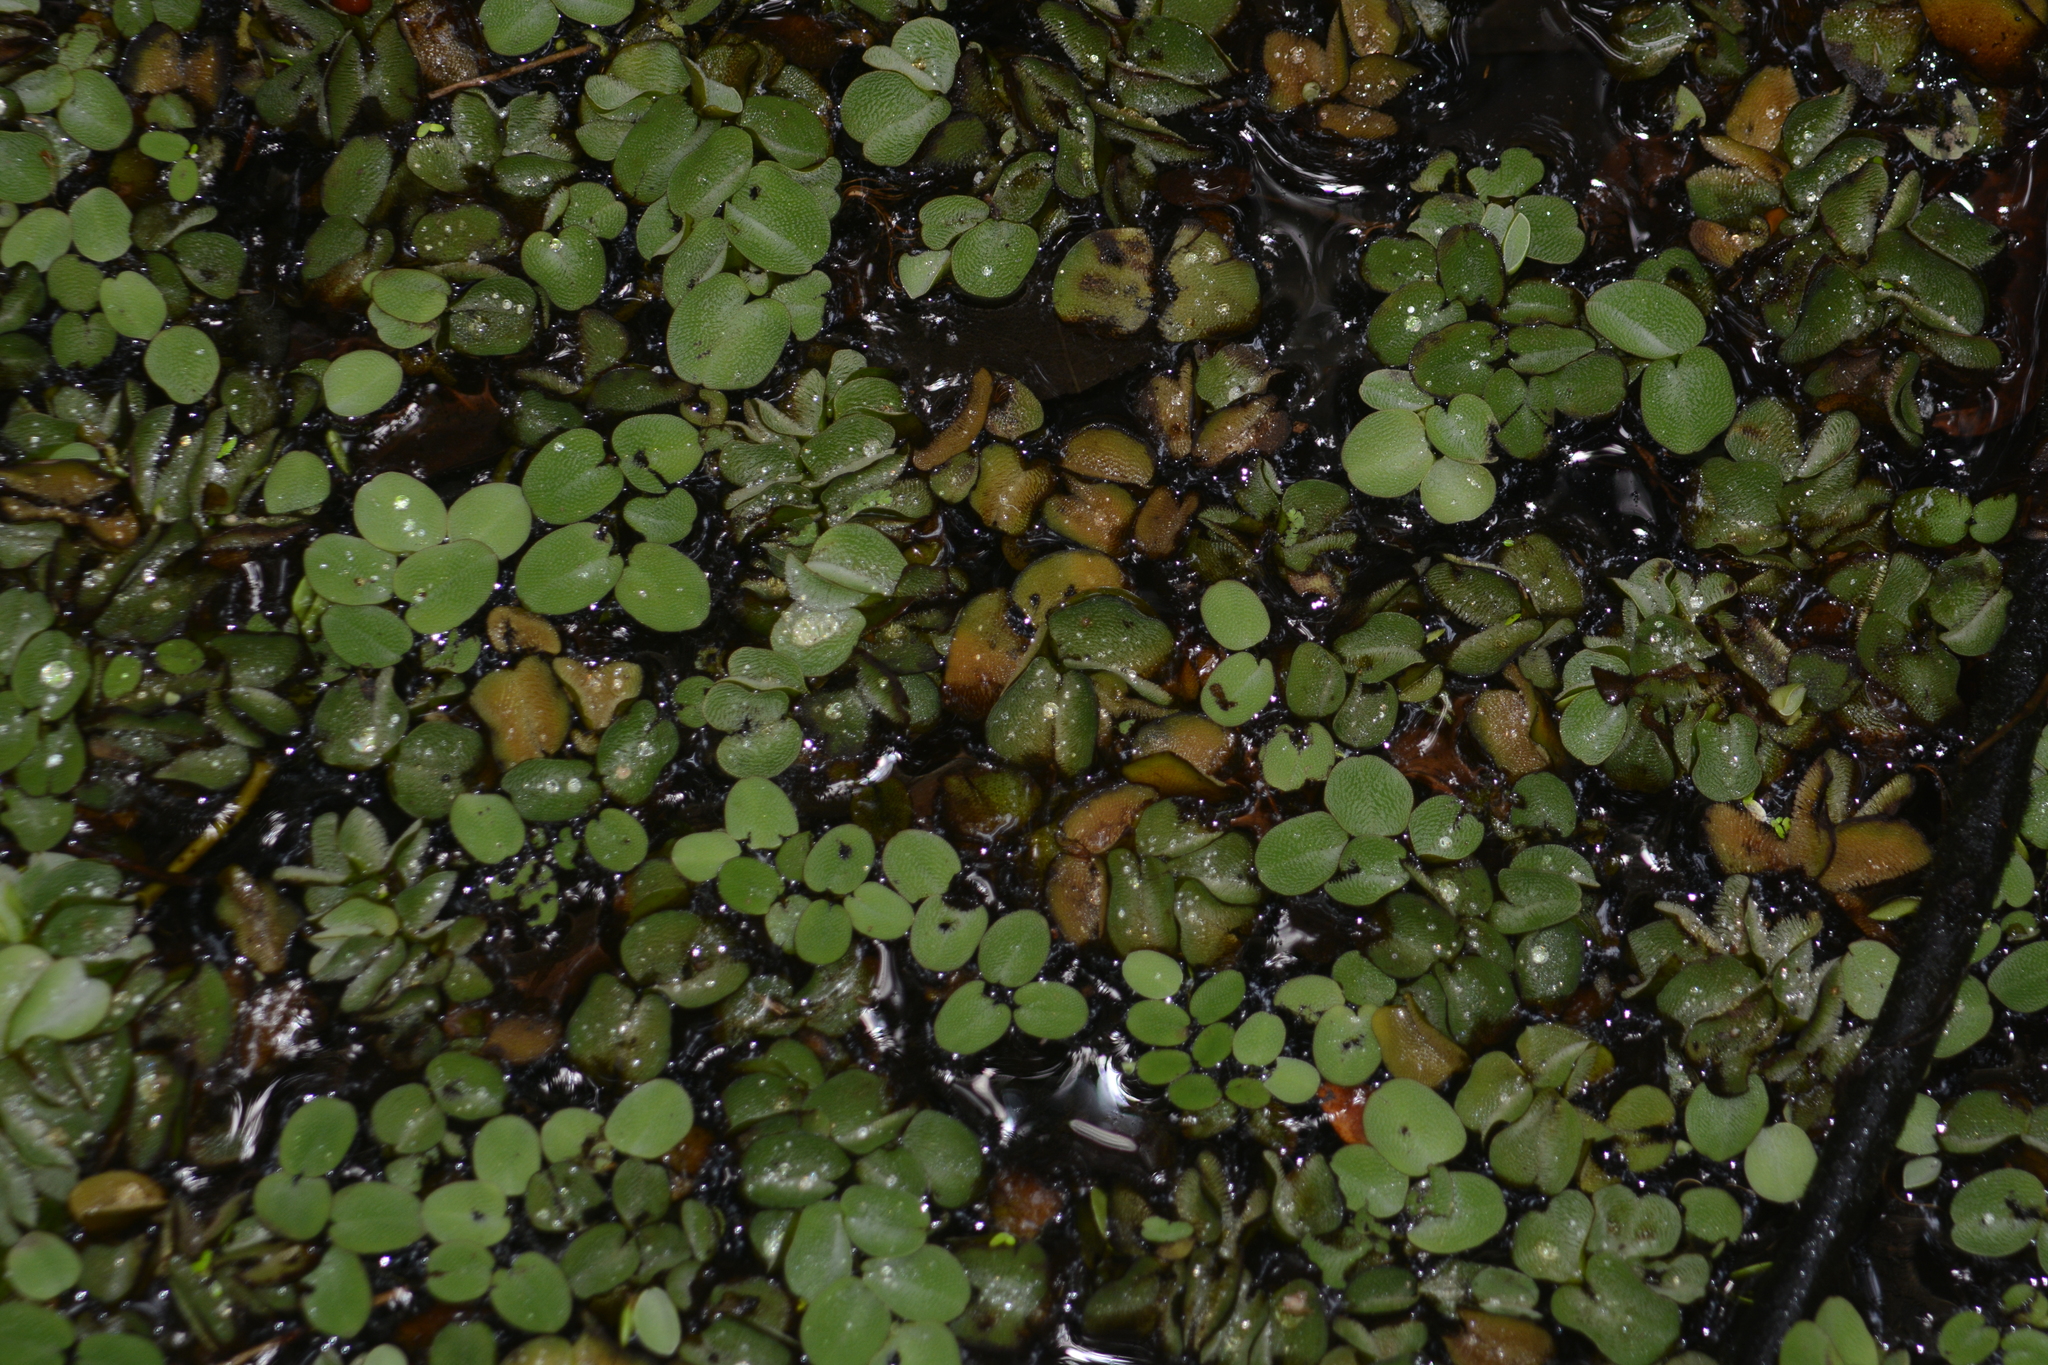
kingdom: Plantae
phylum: Tracheophyta
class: Polypodiopsida
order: Salviniales
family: Salviniaceae
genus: Salvinia
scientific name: Salvinia minima
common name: Water spangles
